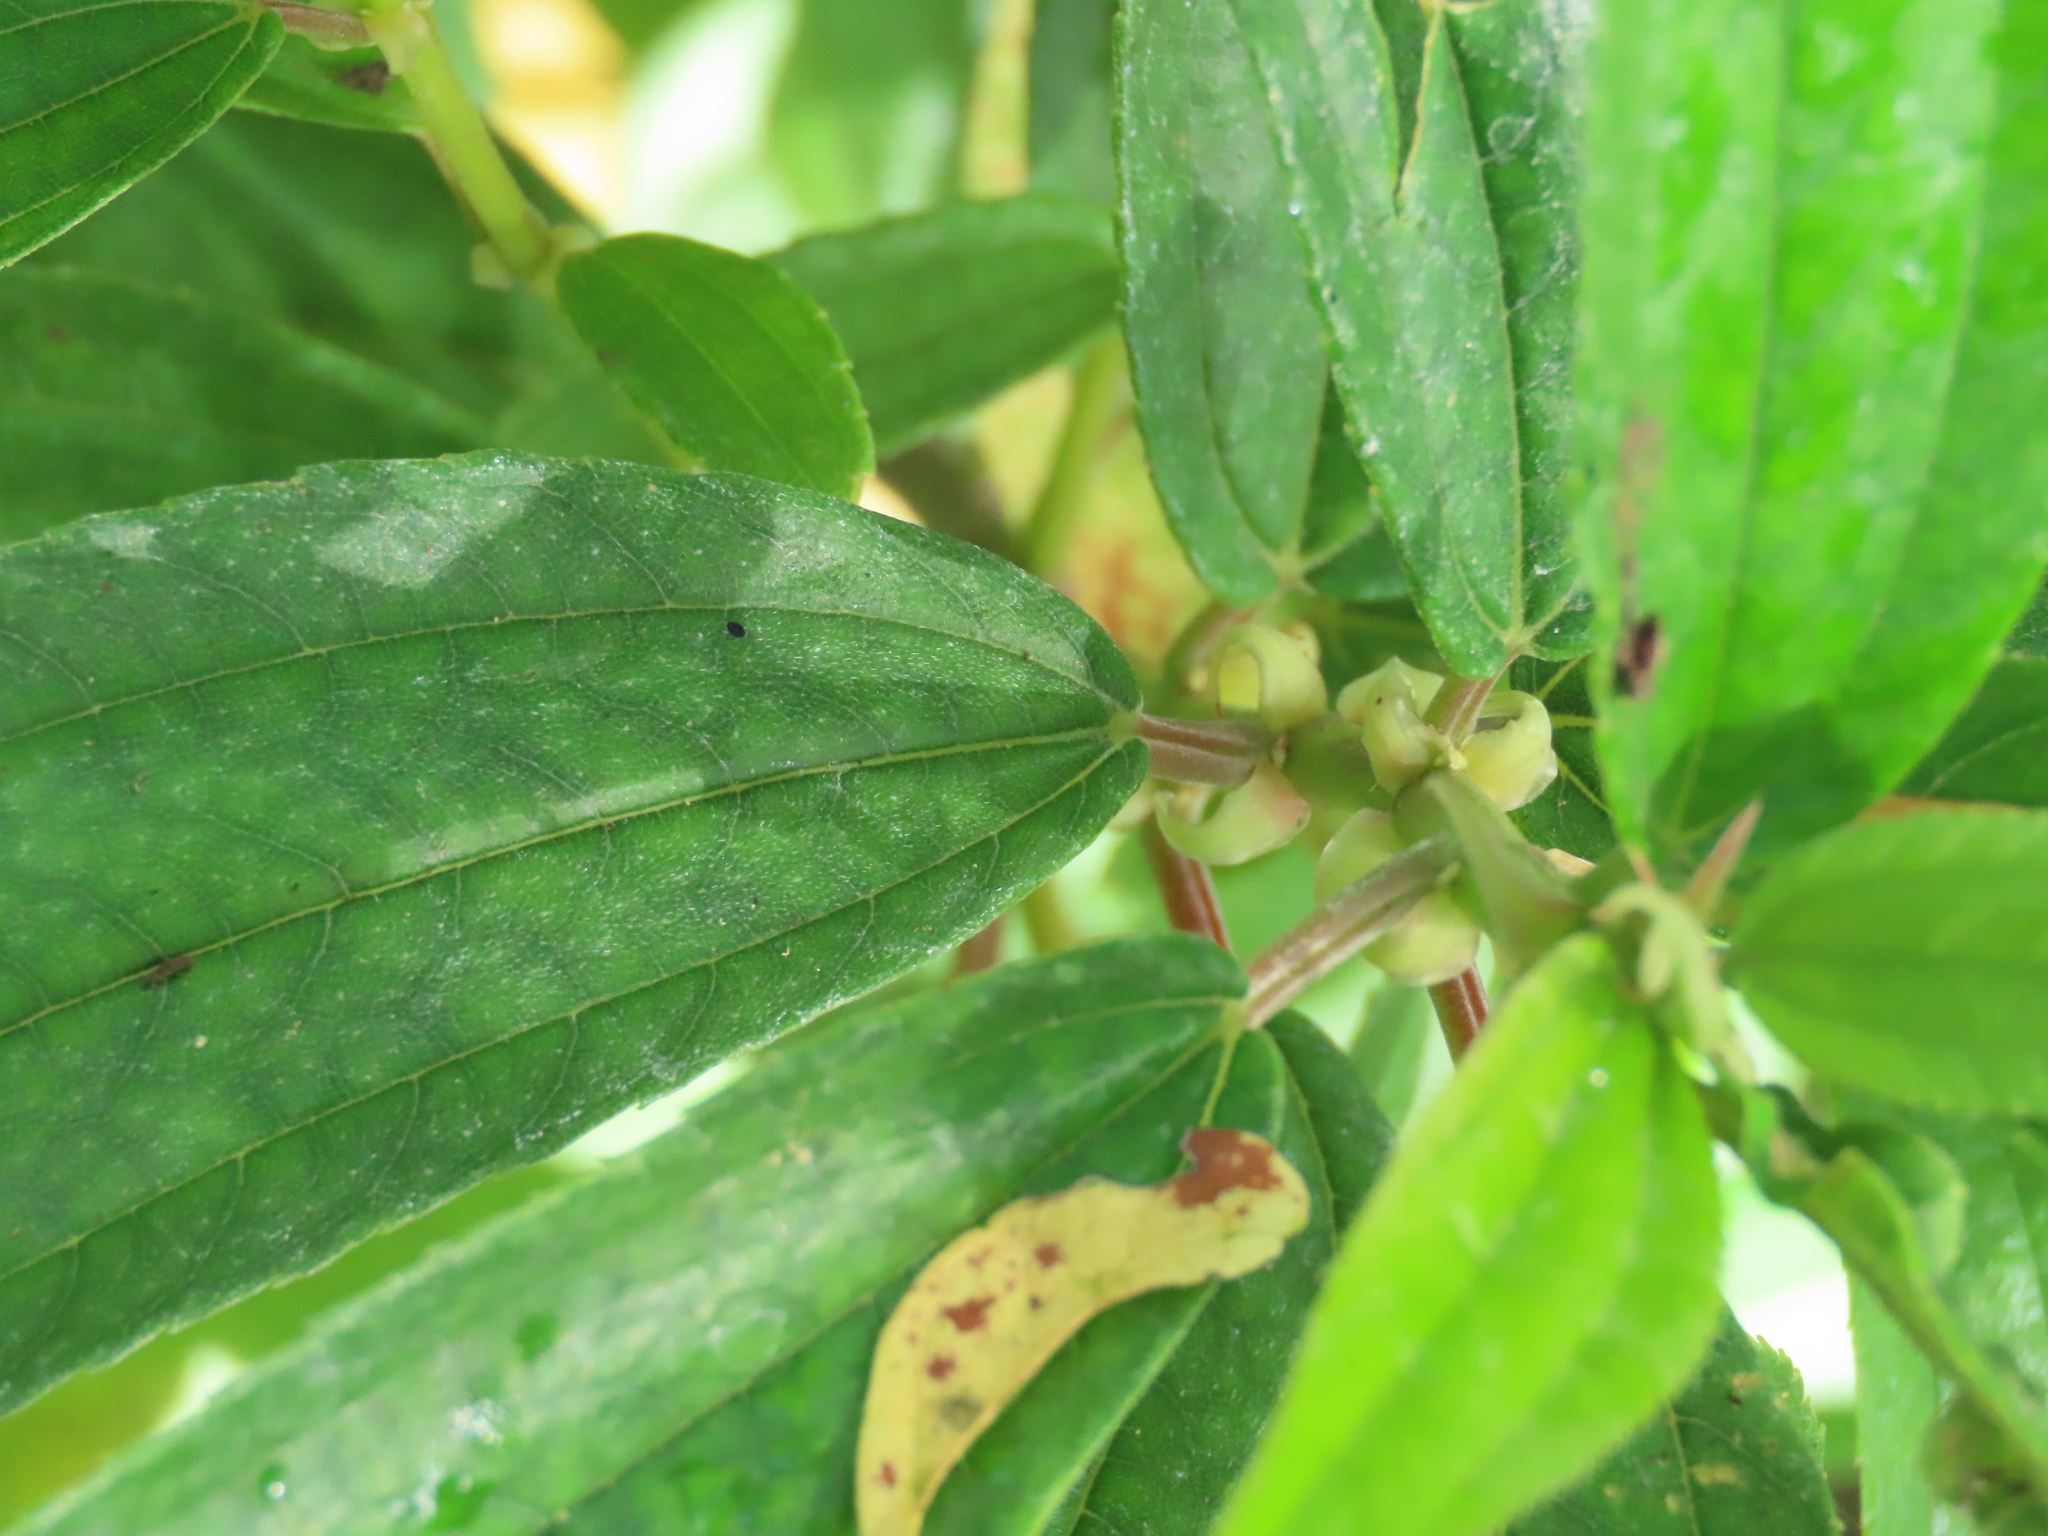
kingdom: Plantae
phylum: Tracheophyta
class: Magnoliopsida
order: Rosales
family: Urticaceae
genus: Boehmeria
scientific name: Boehmeria densiflora
